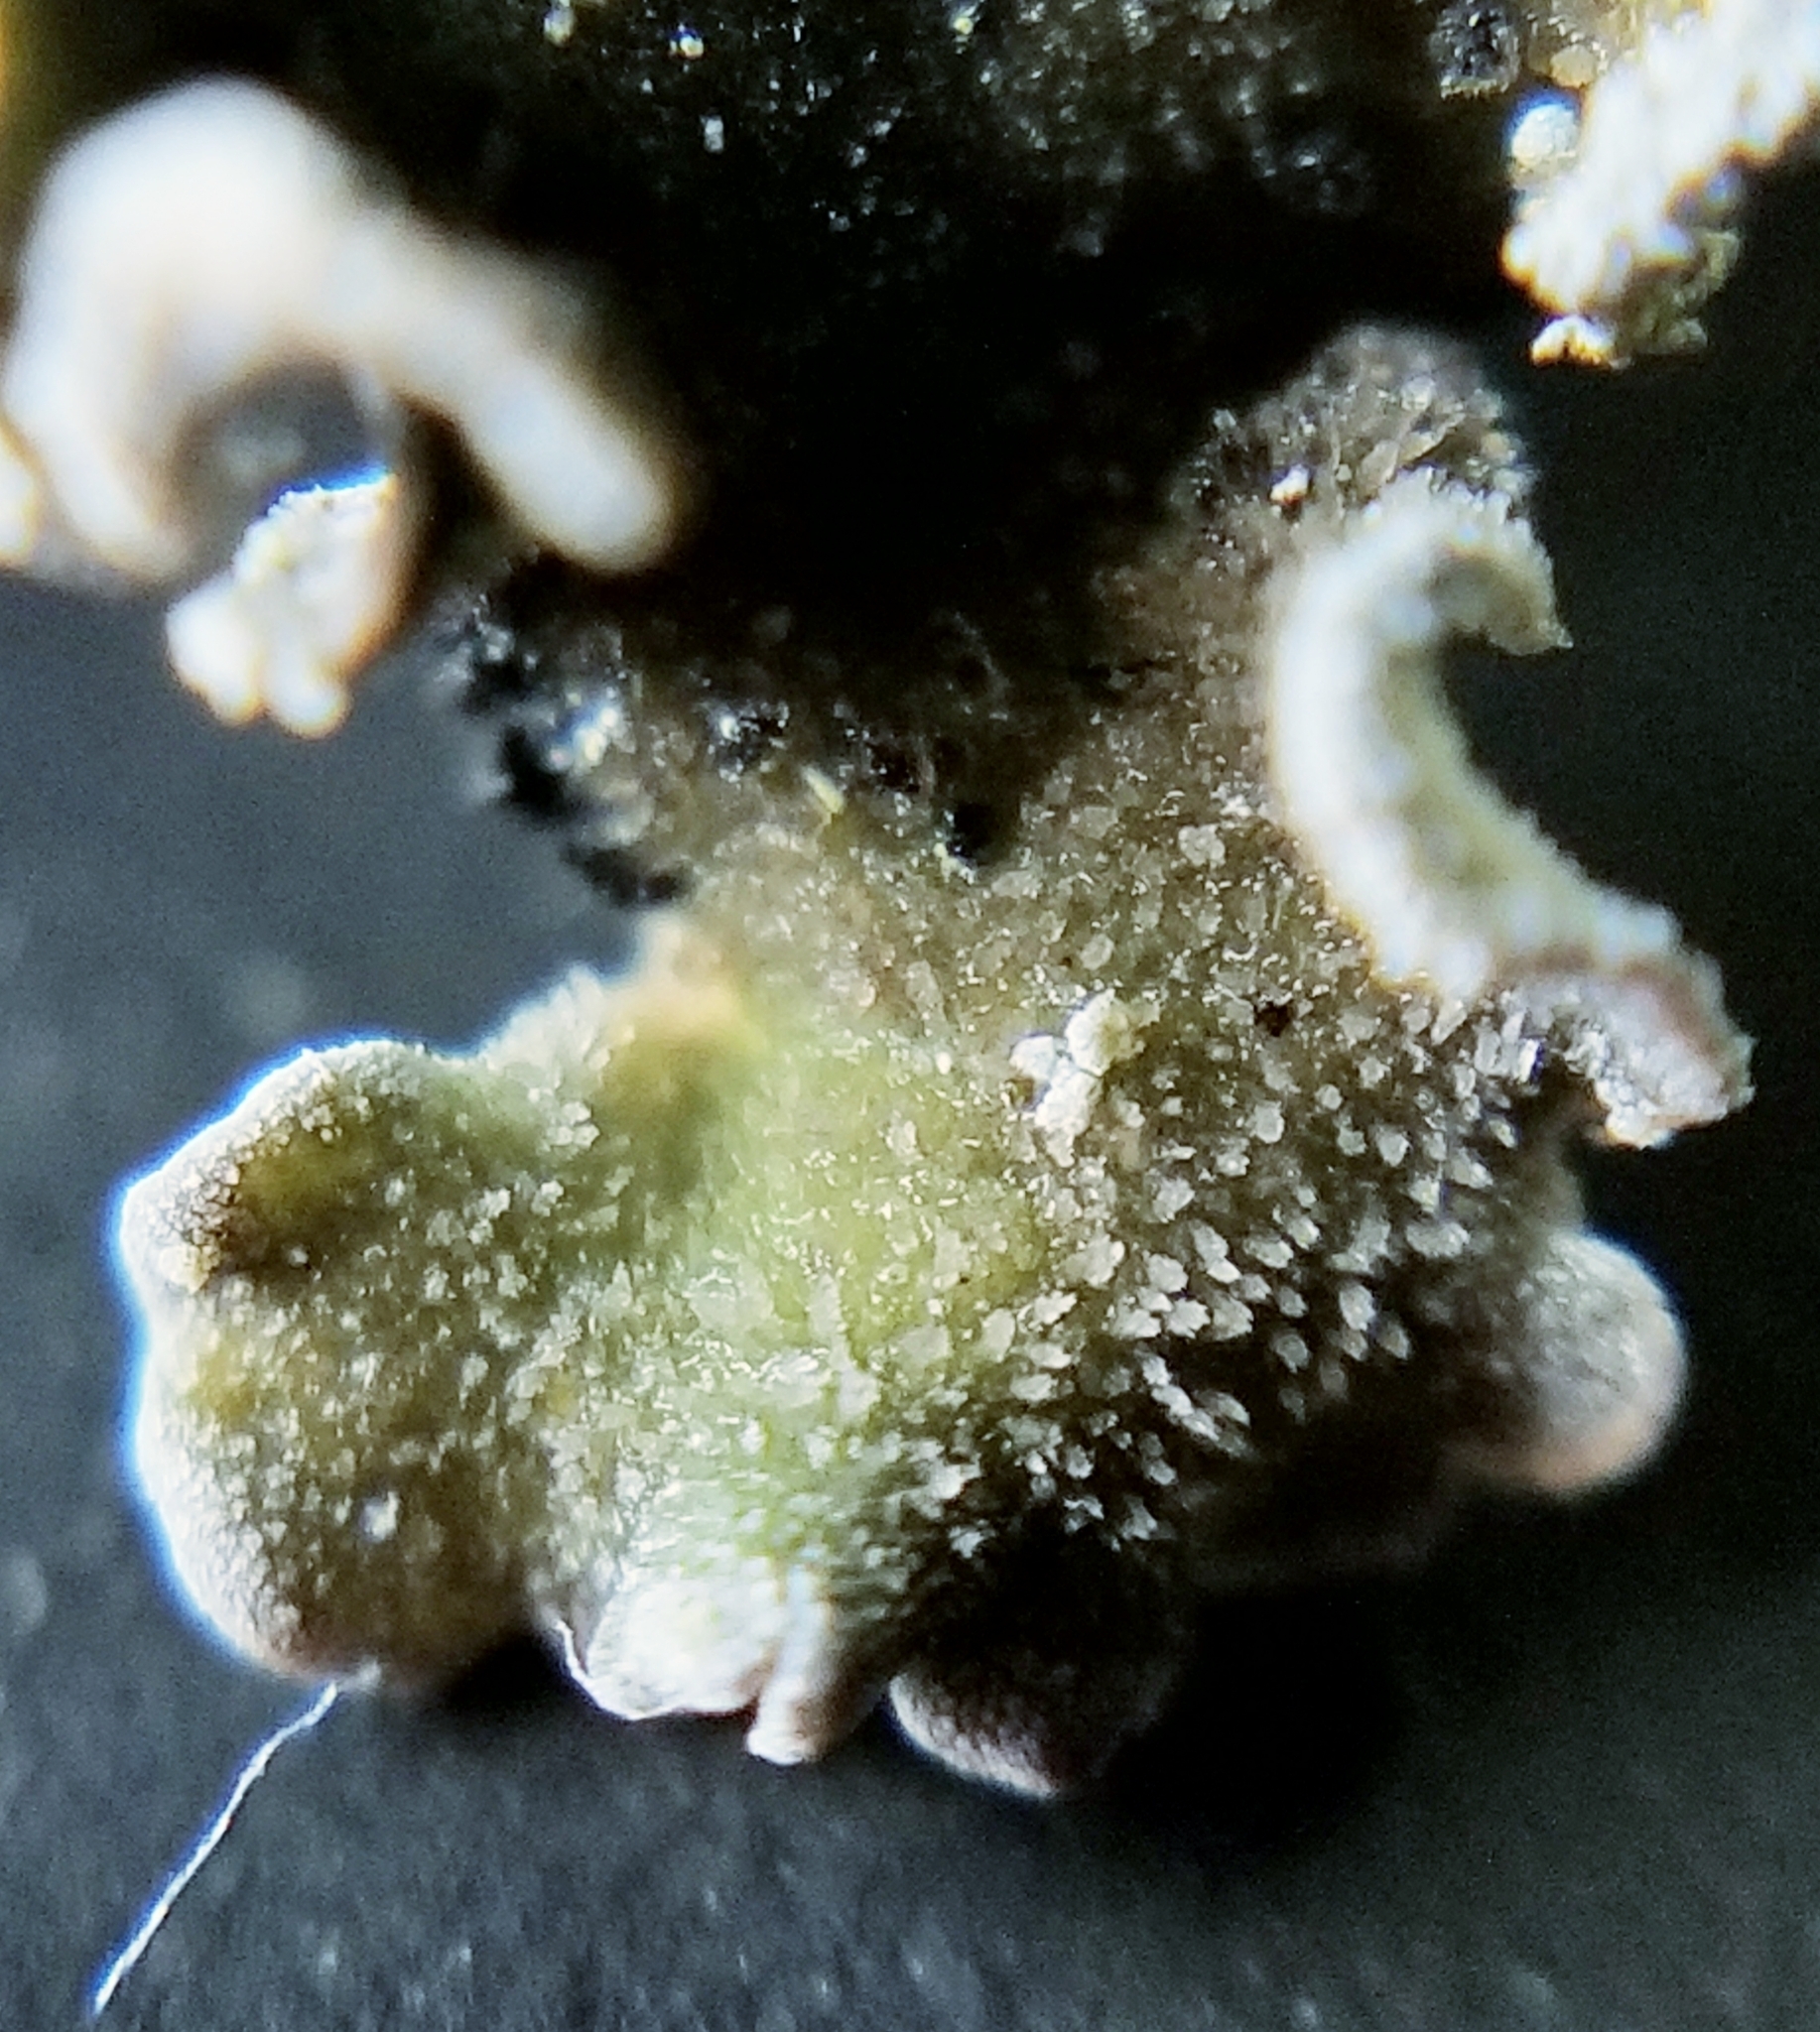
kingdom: Fungi
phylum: Ascomycota
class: Lecanoromycetes
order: Peltigerales
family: Pannariaceae
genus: Erioderma
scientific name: Erioderma sorediatum
